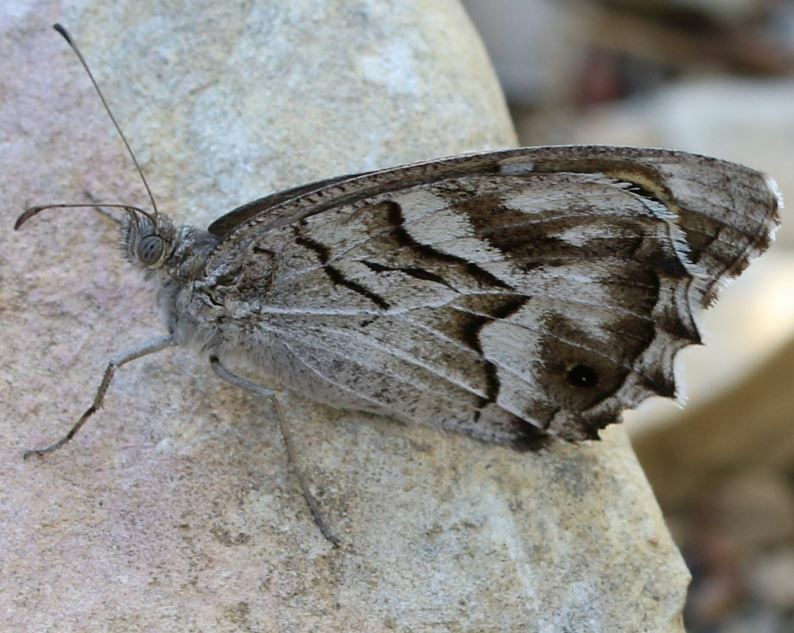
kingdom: Animalia
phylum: Arthropoda
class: Insecta
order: Lepidoptera
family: Nymphalidae
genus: Hipparchia
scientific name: Hipparchia fidia
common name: Striped grayling
